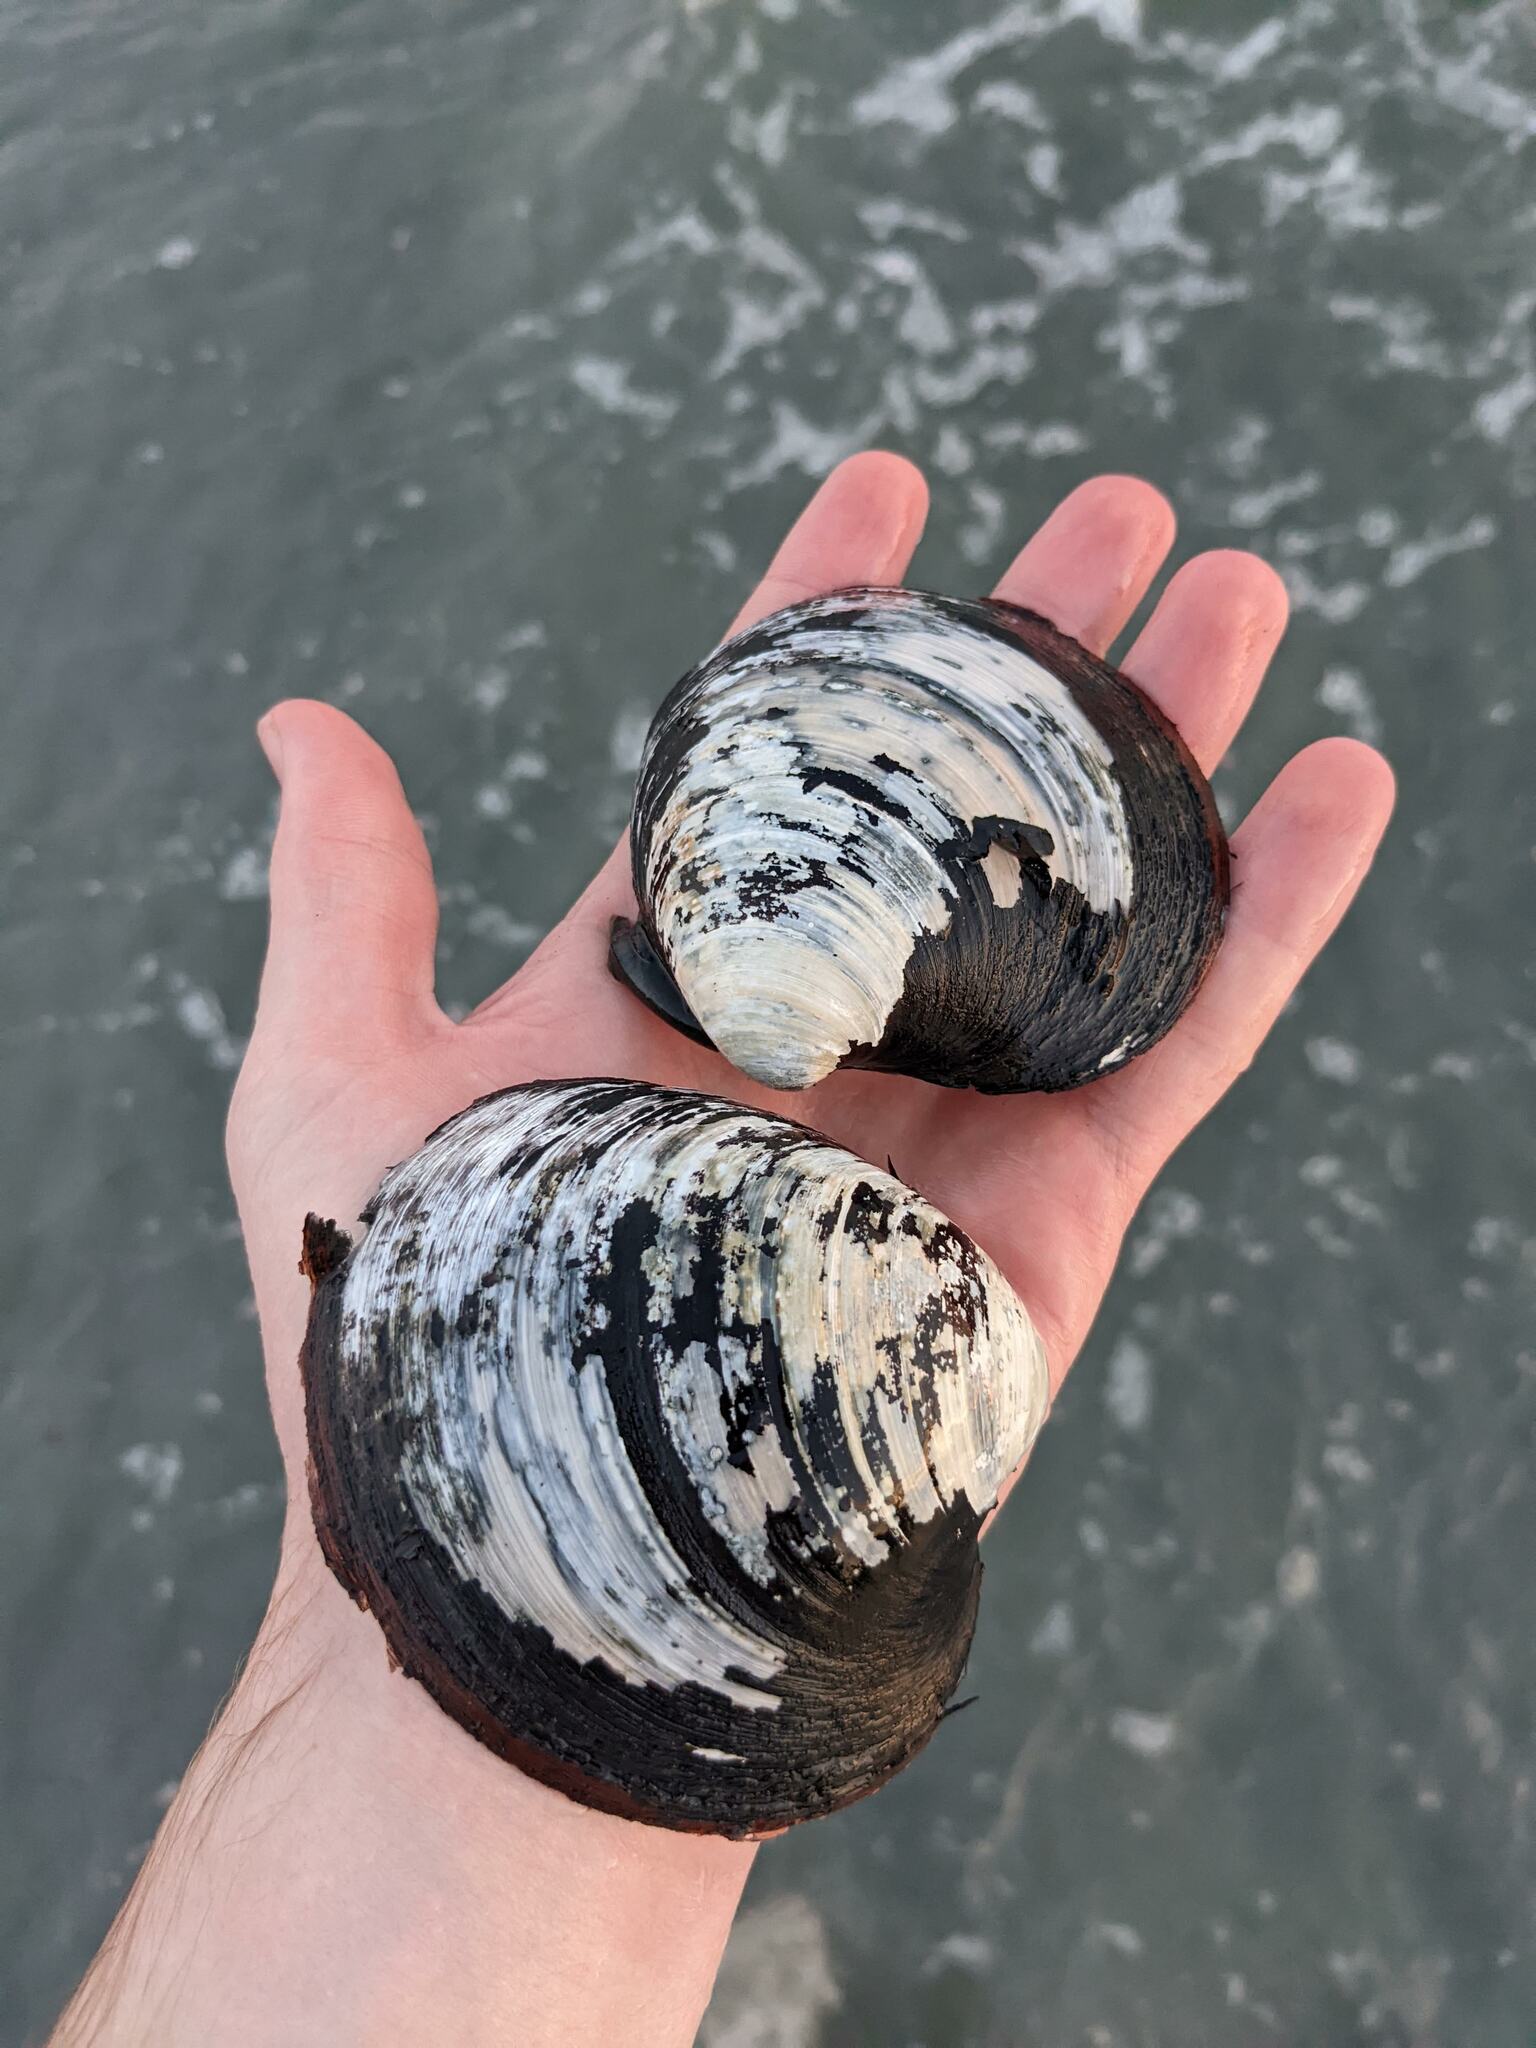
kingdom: Animalia
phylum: Mollusca
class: Bivalvia
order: Venerida
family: Arcticidae
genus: Arctica
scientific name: Arctica islandica
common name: Icelandic cyprine
